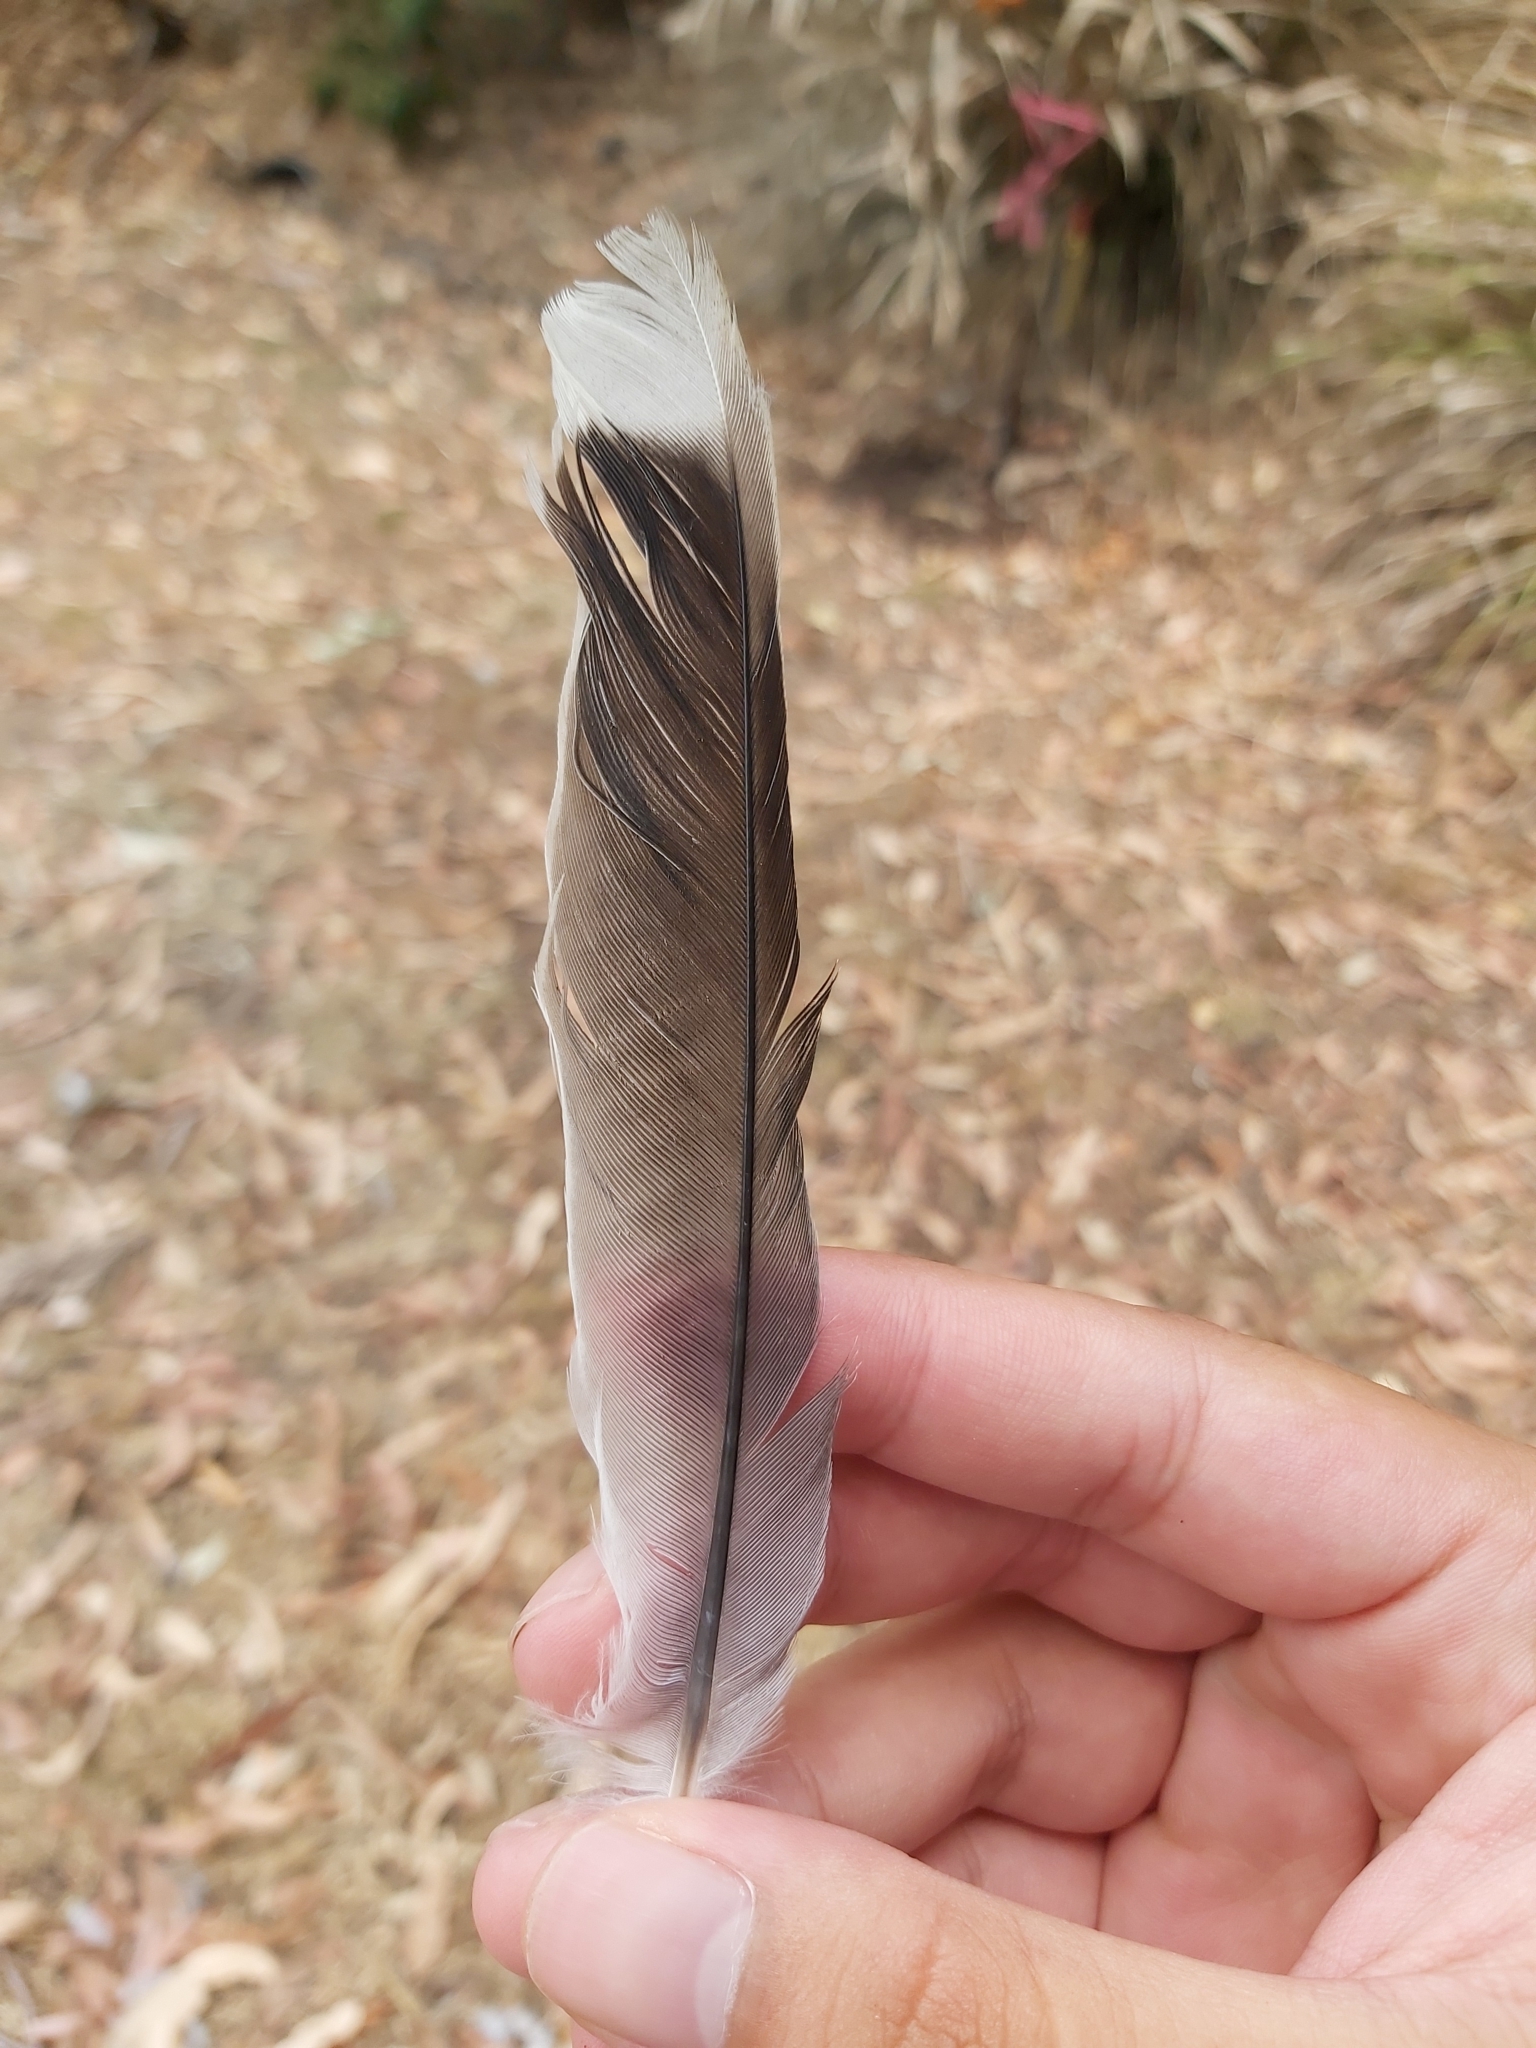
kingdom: Animalia
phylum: Chordata
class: Aves
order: Passeriformes
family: Campephagidae
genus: Coracina
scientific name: Coracina novaehollandiae
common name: Black-faced cuckooshrike
